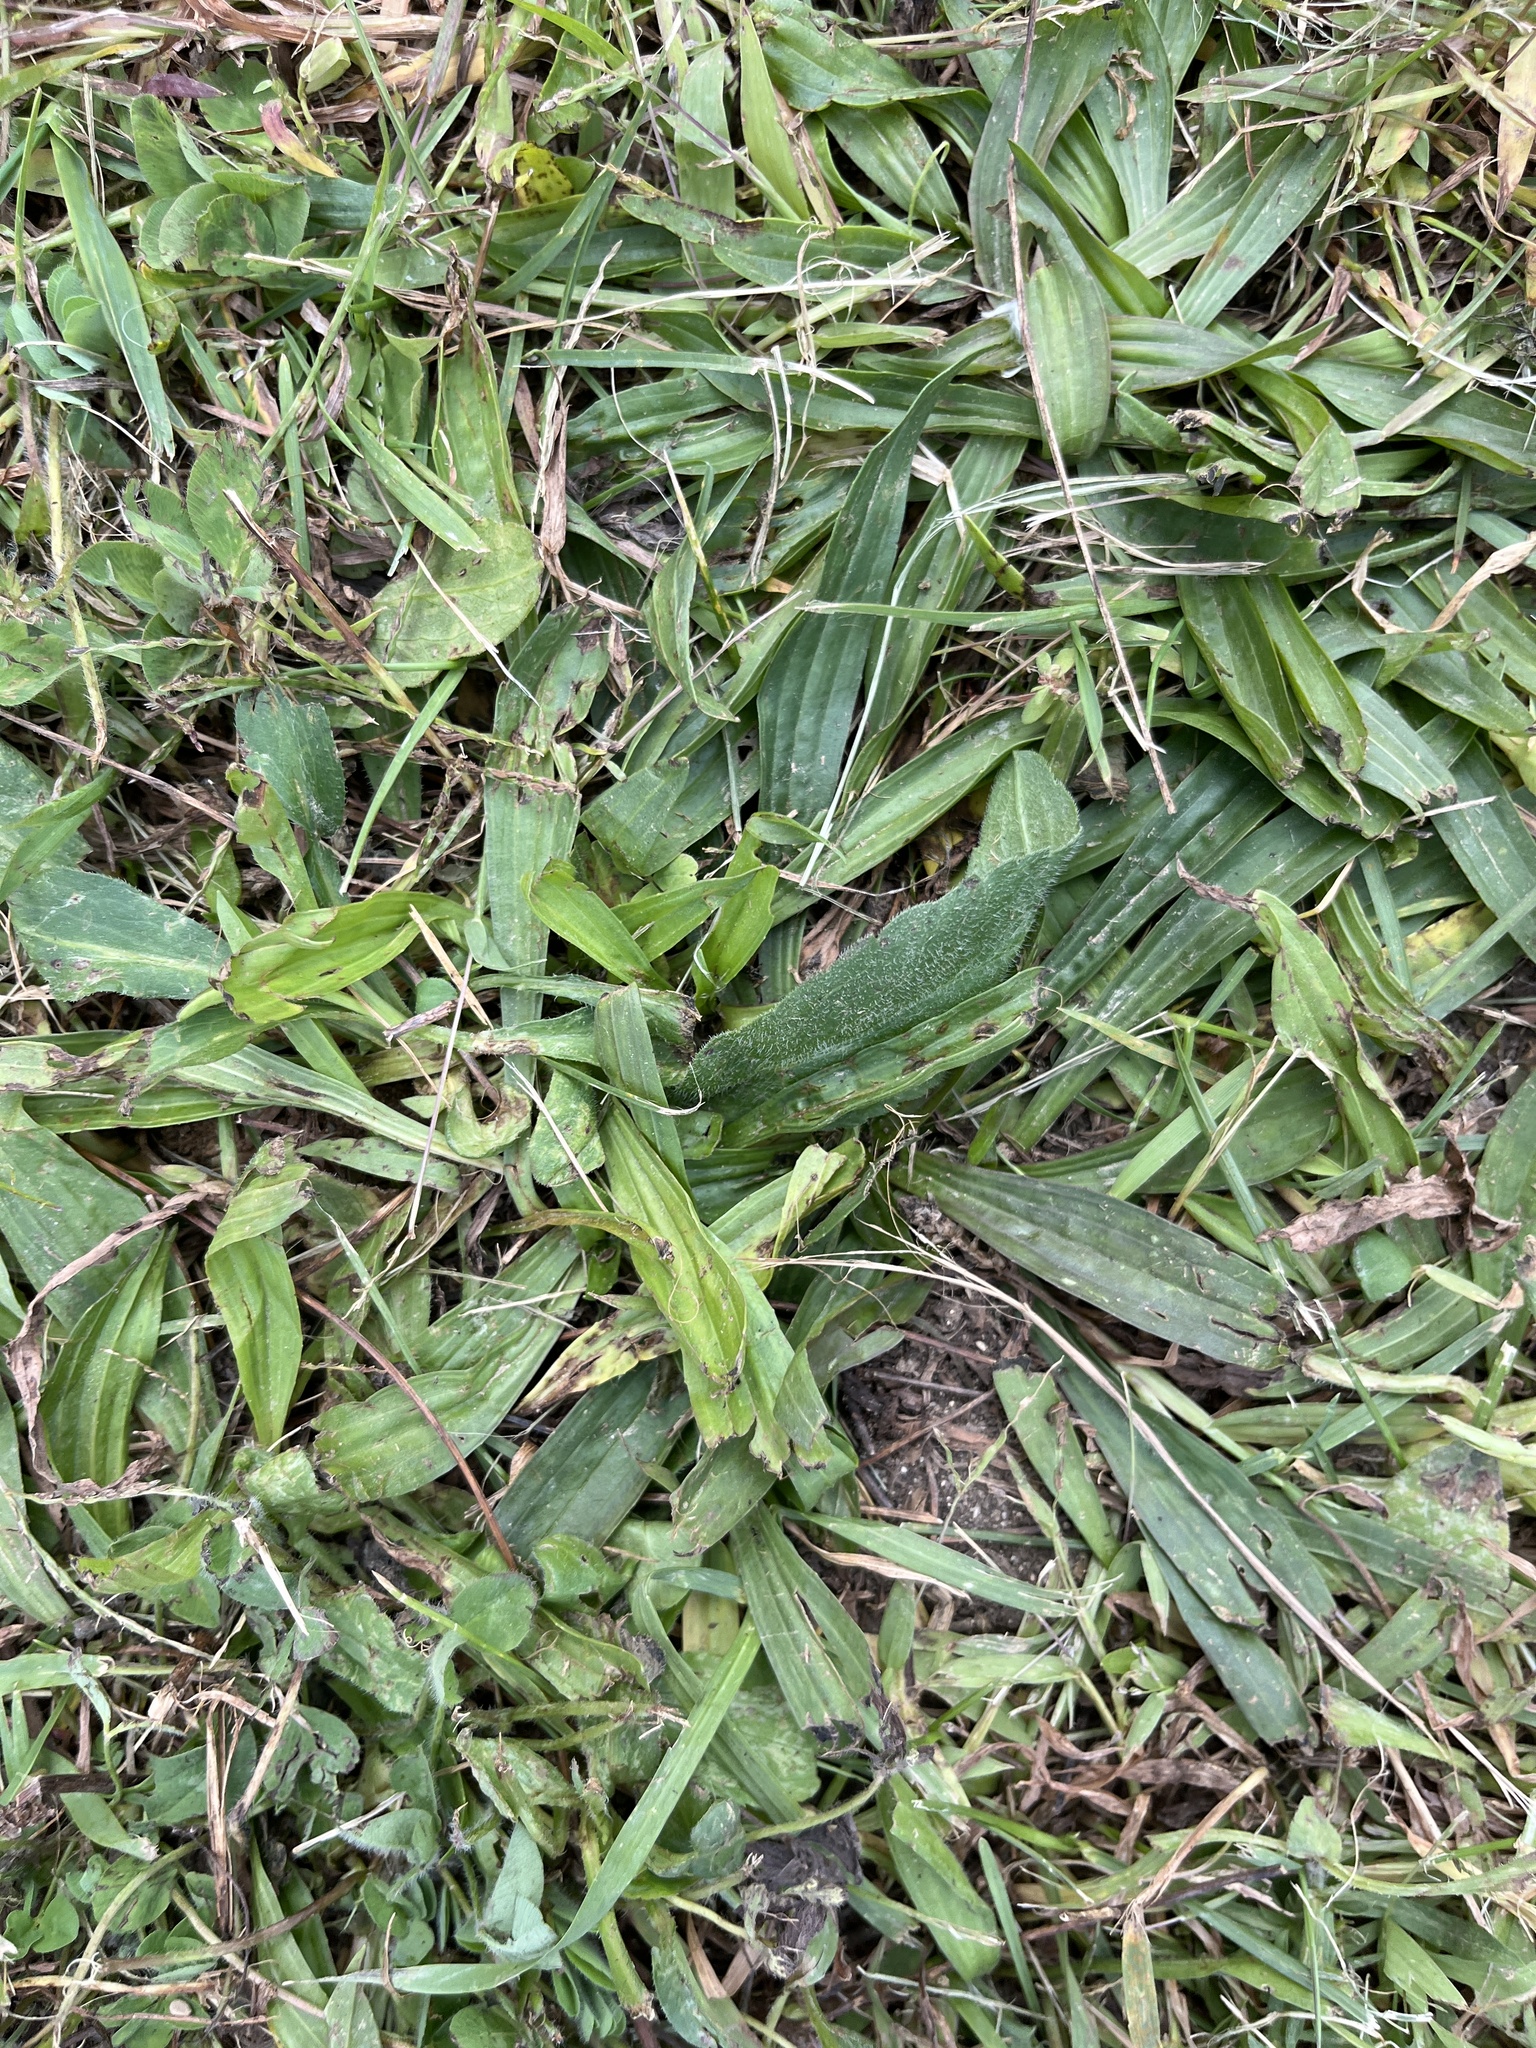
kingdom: Plantae
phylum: Tracheophyta
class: Magnoliopsida
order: Lamiales
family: Plantaginaceae
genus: Plantago
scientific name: Plantago lanceolata
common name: Ribwort plantain
